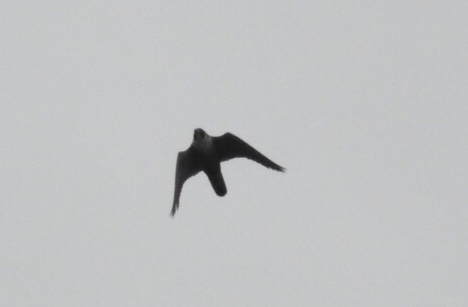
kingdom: Animalia
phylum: Chordata
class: Aves
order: Falconiformes
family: Falconidae
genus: Falco
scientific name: Falco peregrinus
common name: Peregrine falcon
